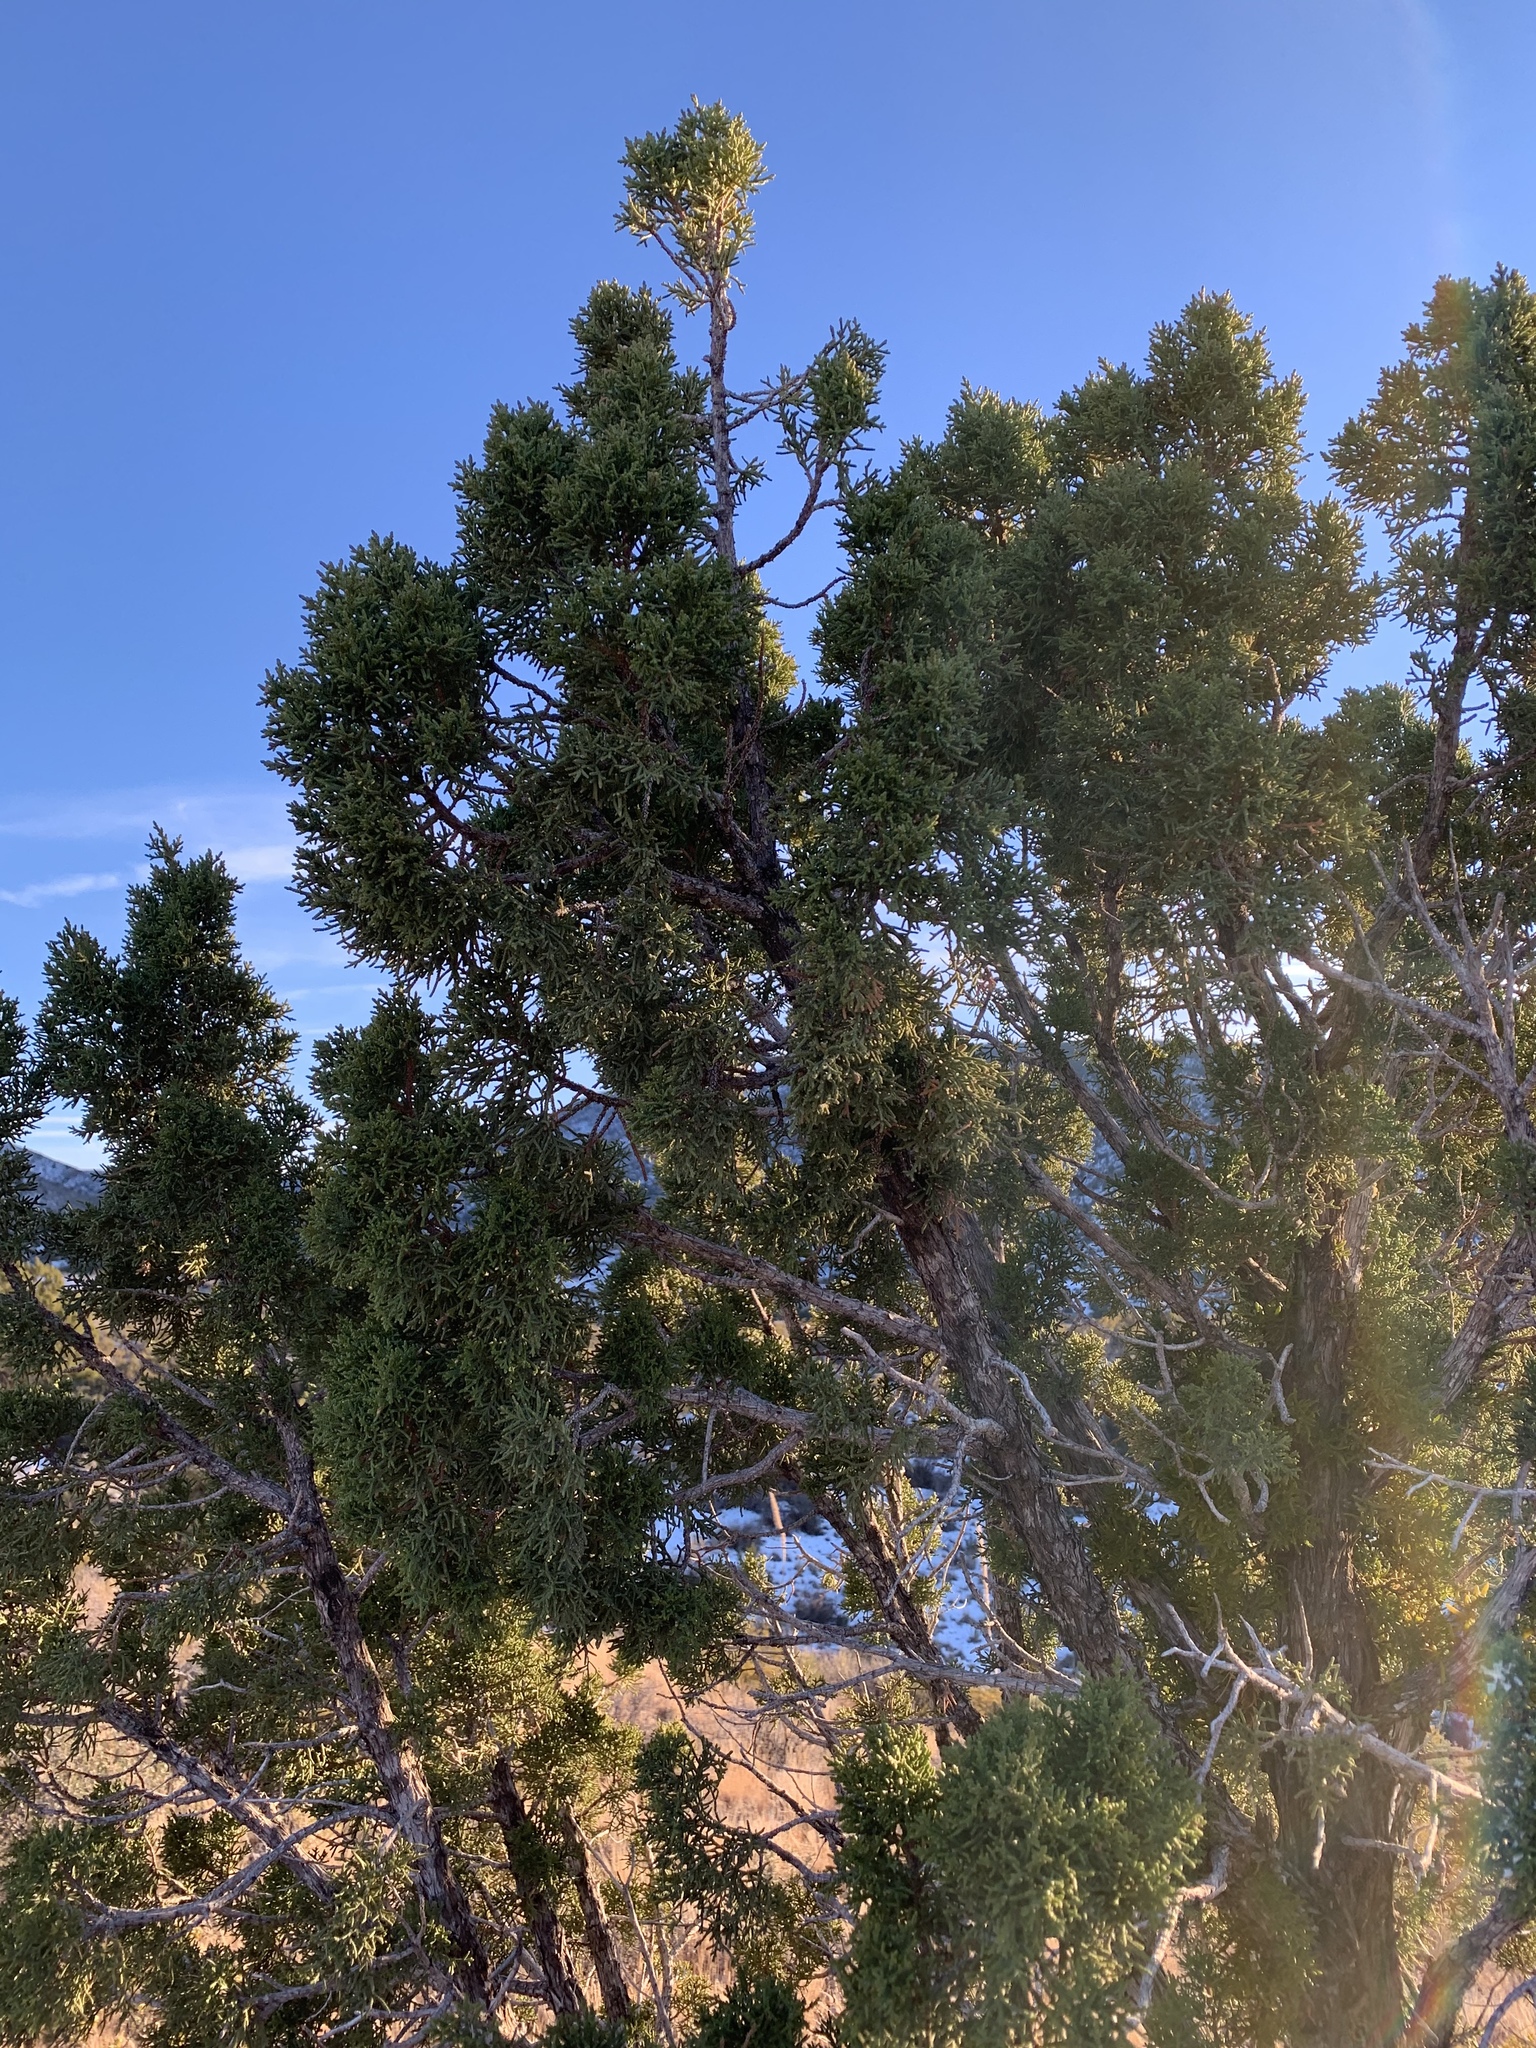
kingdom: Plantae
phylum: Tracheophyta
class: Pinopsida
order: Pinales
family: Cupressaceae
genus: Juniperus
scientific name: Juniperus monosperma
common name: One-seed juniper
